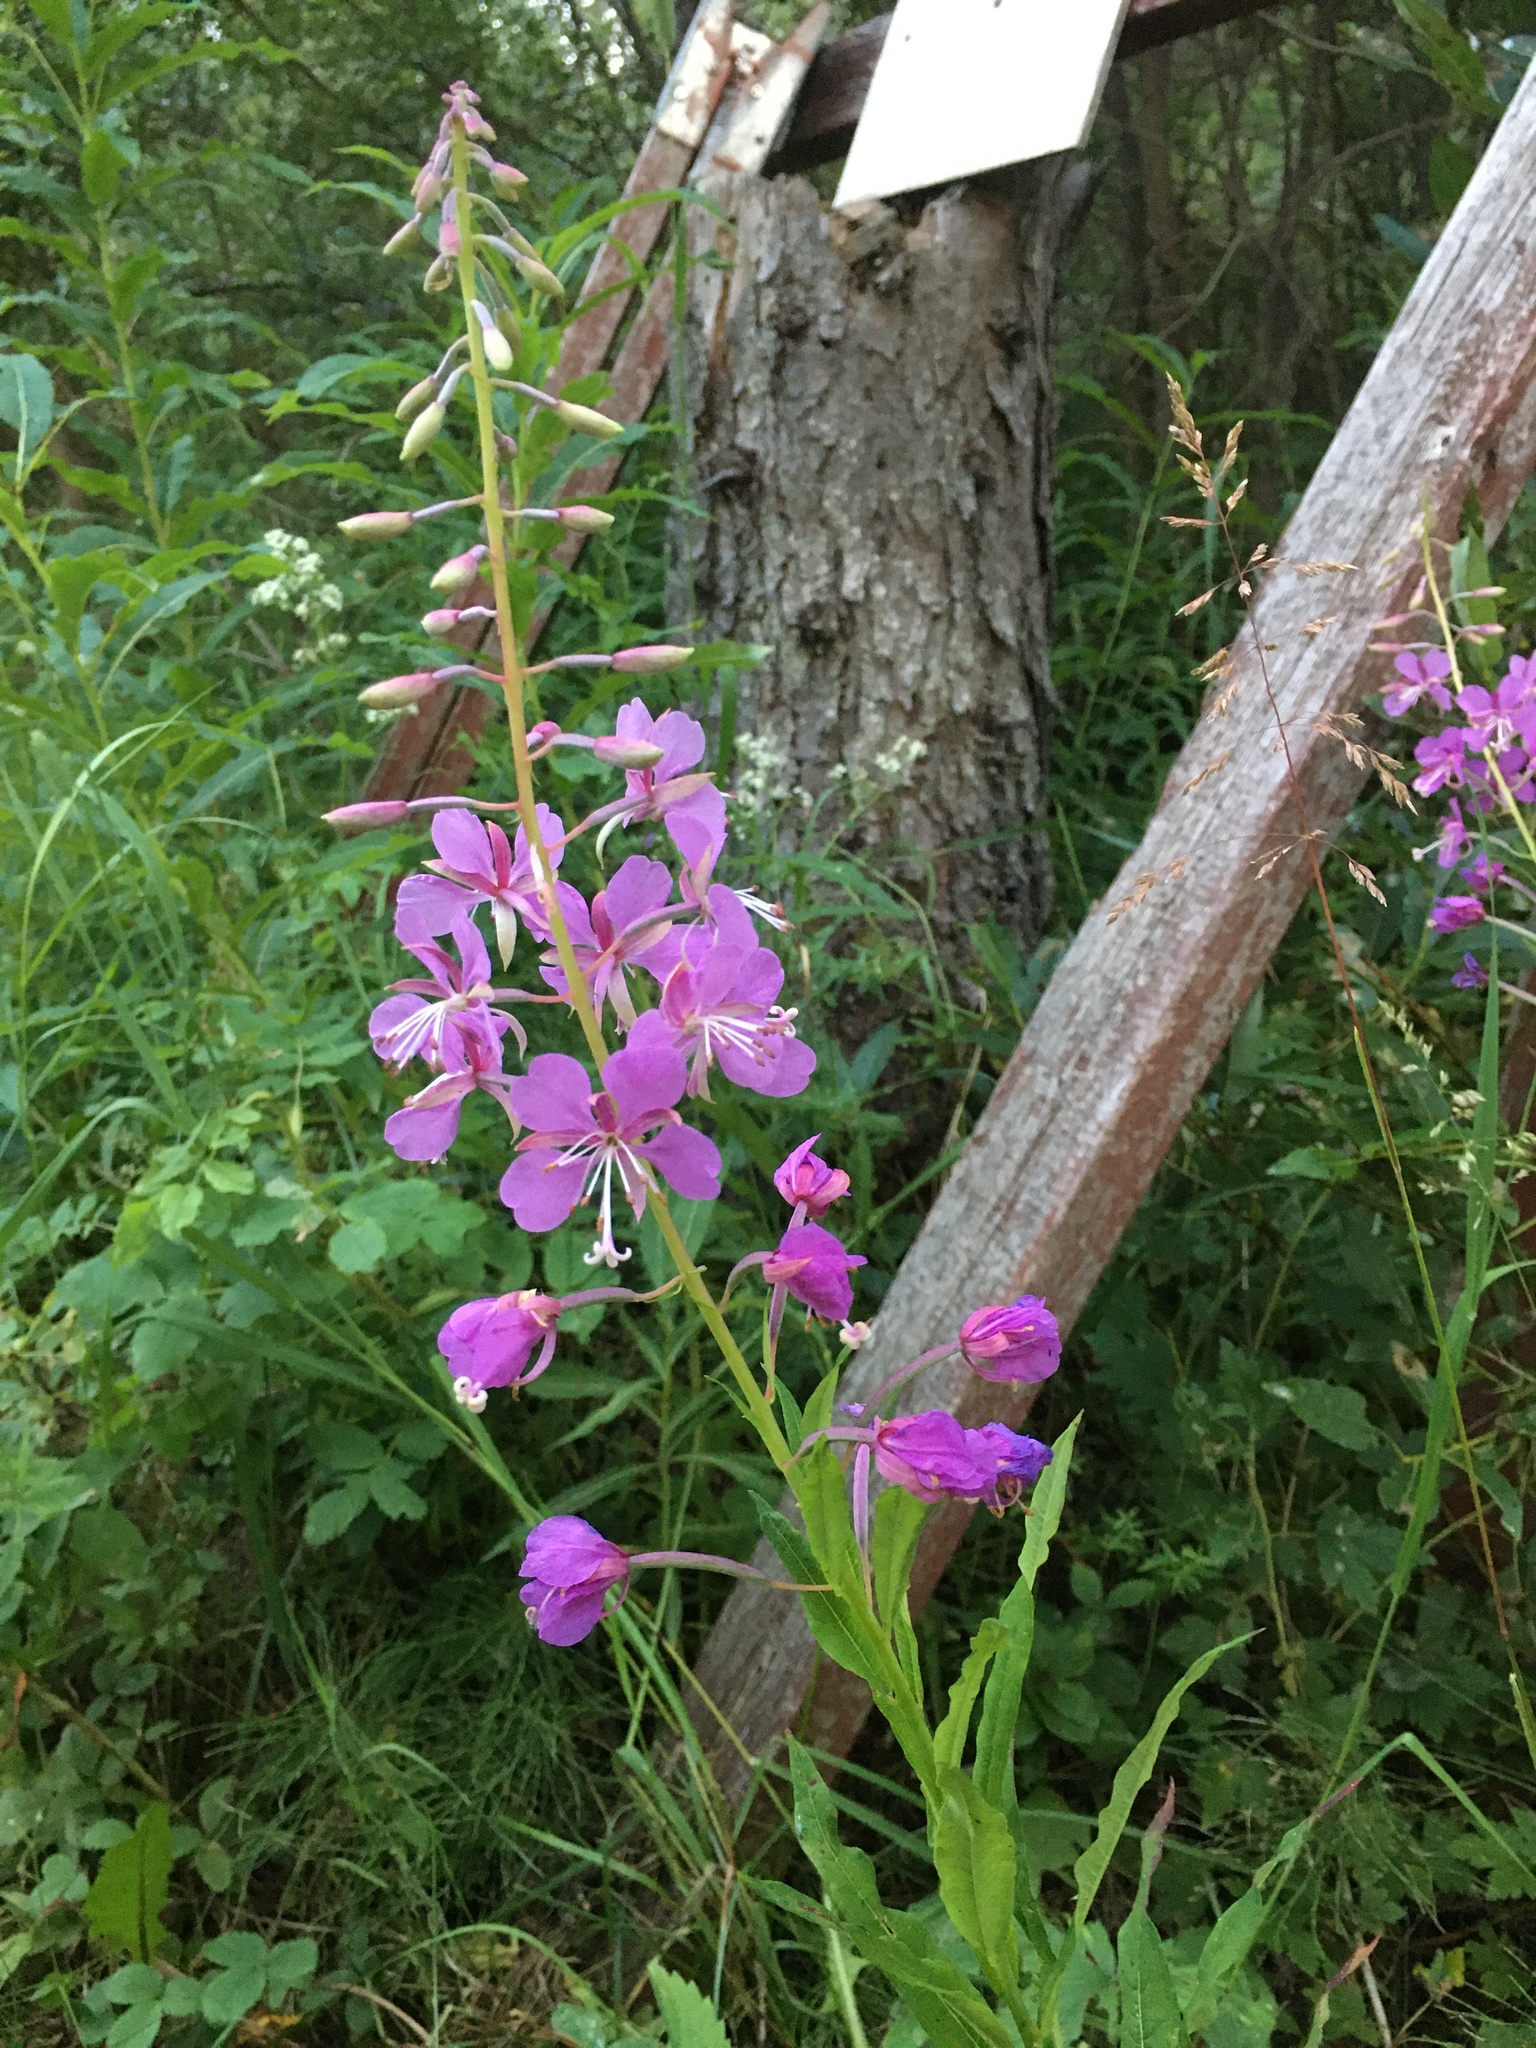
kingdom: Plantae
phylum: Tracheophyta
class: Magnoliopsida
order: Myrtales
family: Onagraceae
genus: Chamaenerion
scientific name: Chamaenerion angustifolium
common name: Fireweed
